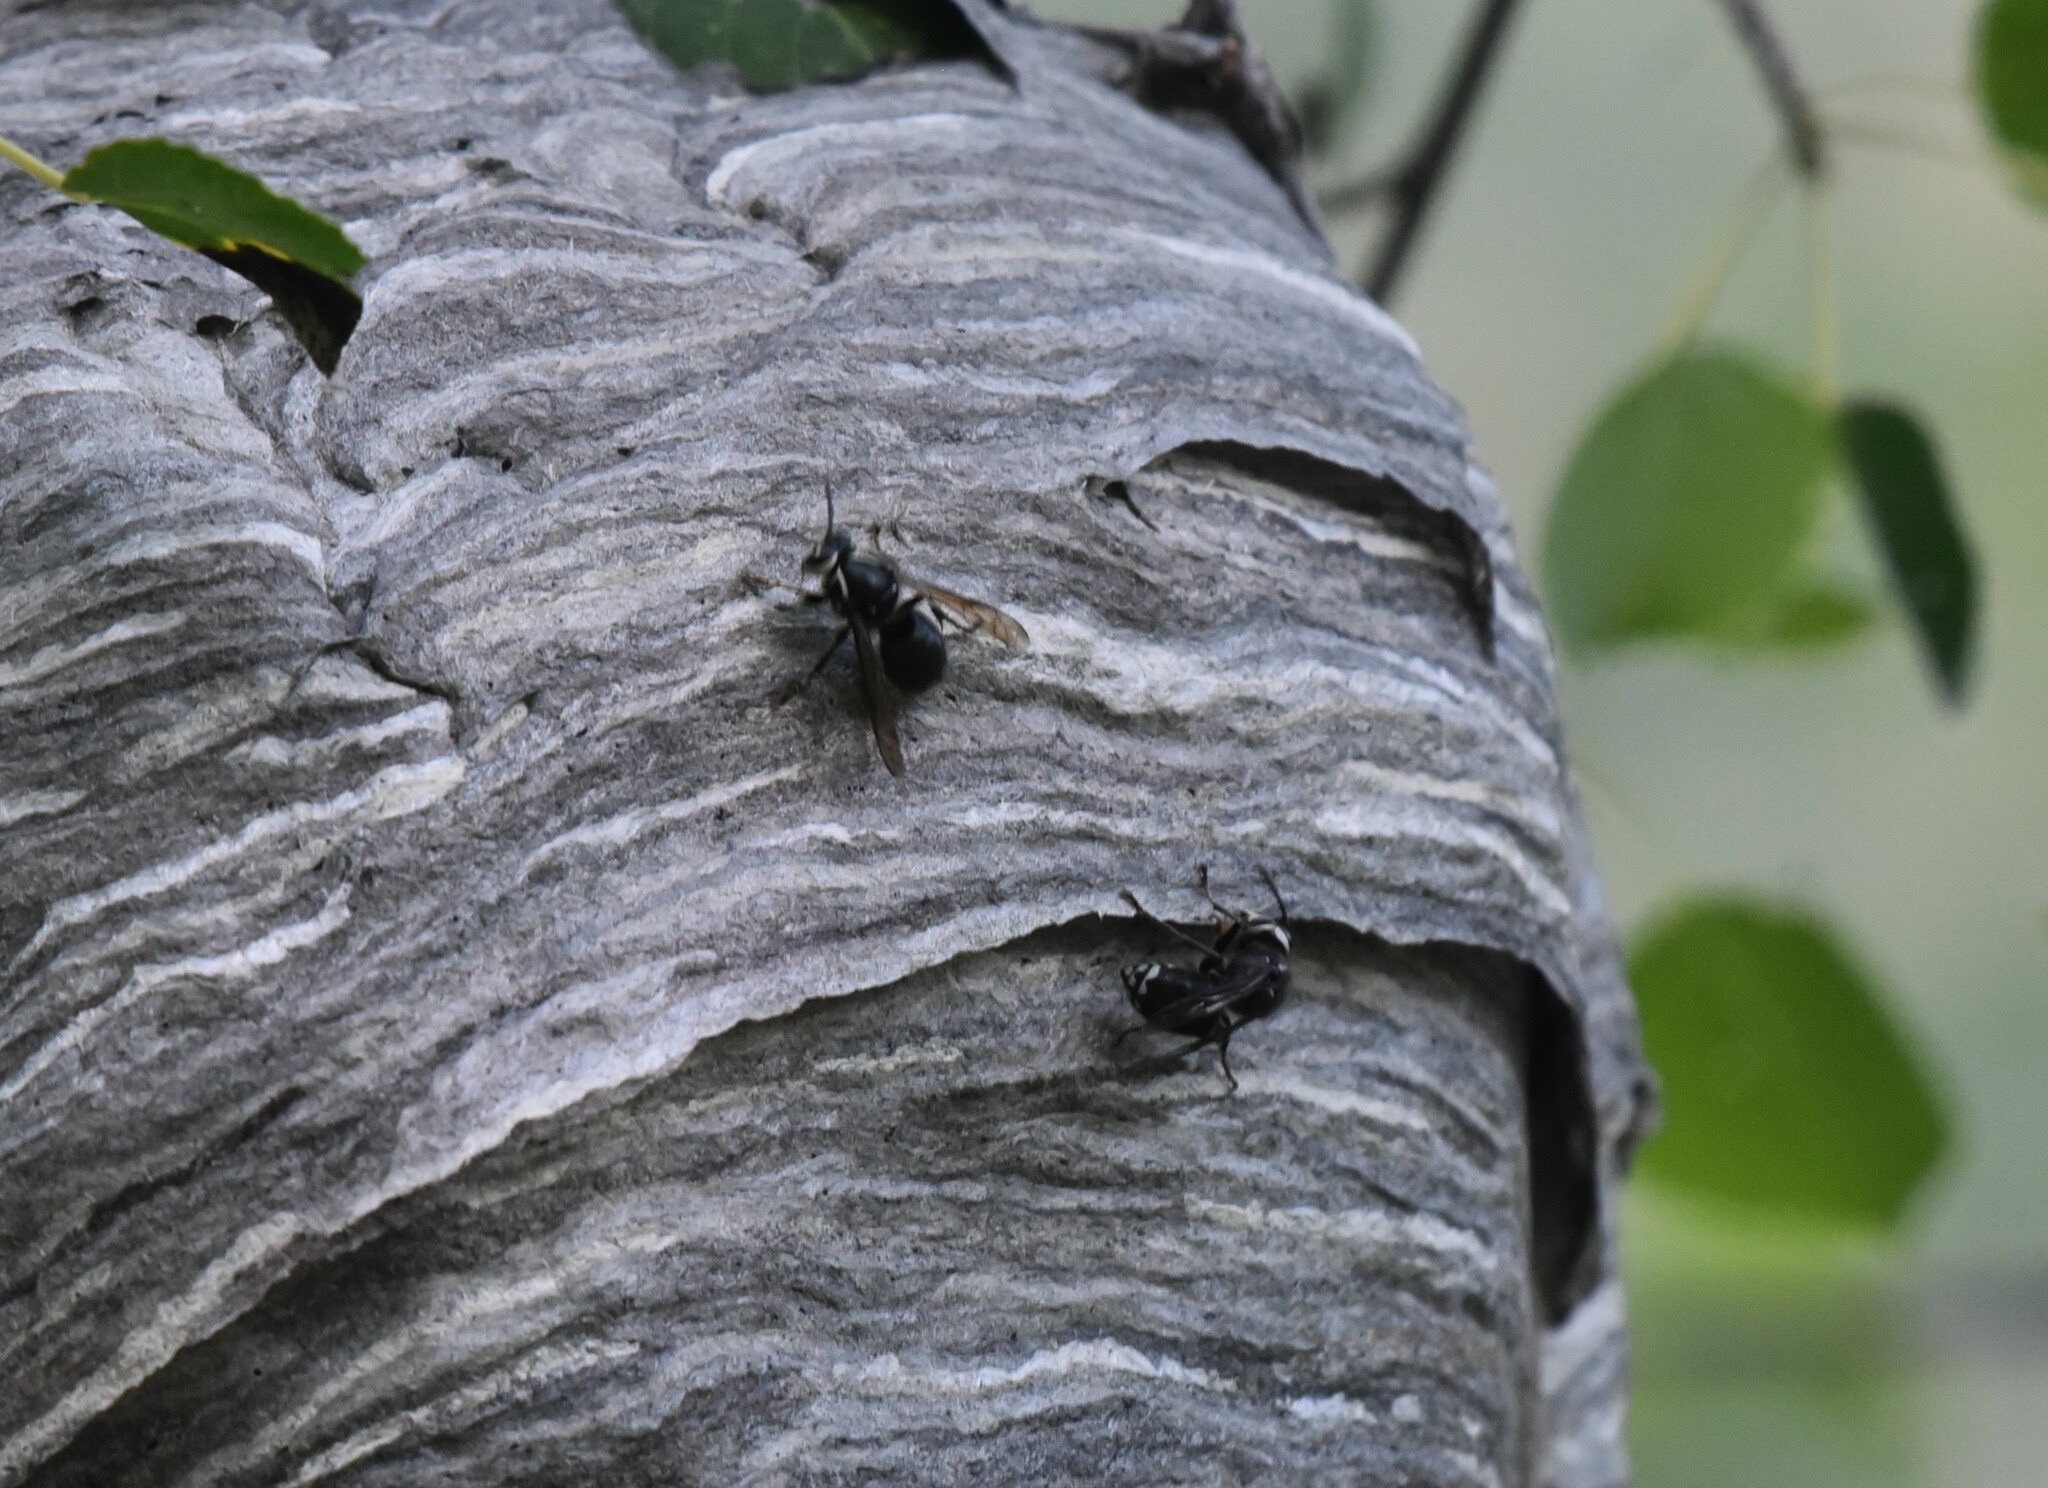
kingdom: Animalia
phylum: Arthropoda
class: Insecta
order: Hymenoptera
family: Vespidae
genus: Dolichovespula
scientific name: Dolichovespula maculata
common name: Bald-faced hornet
